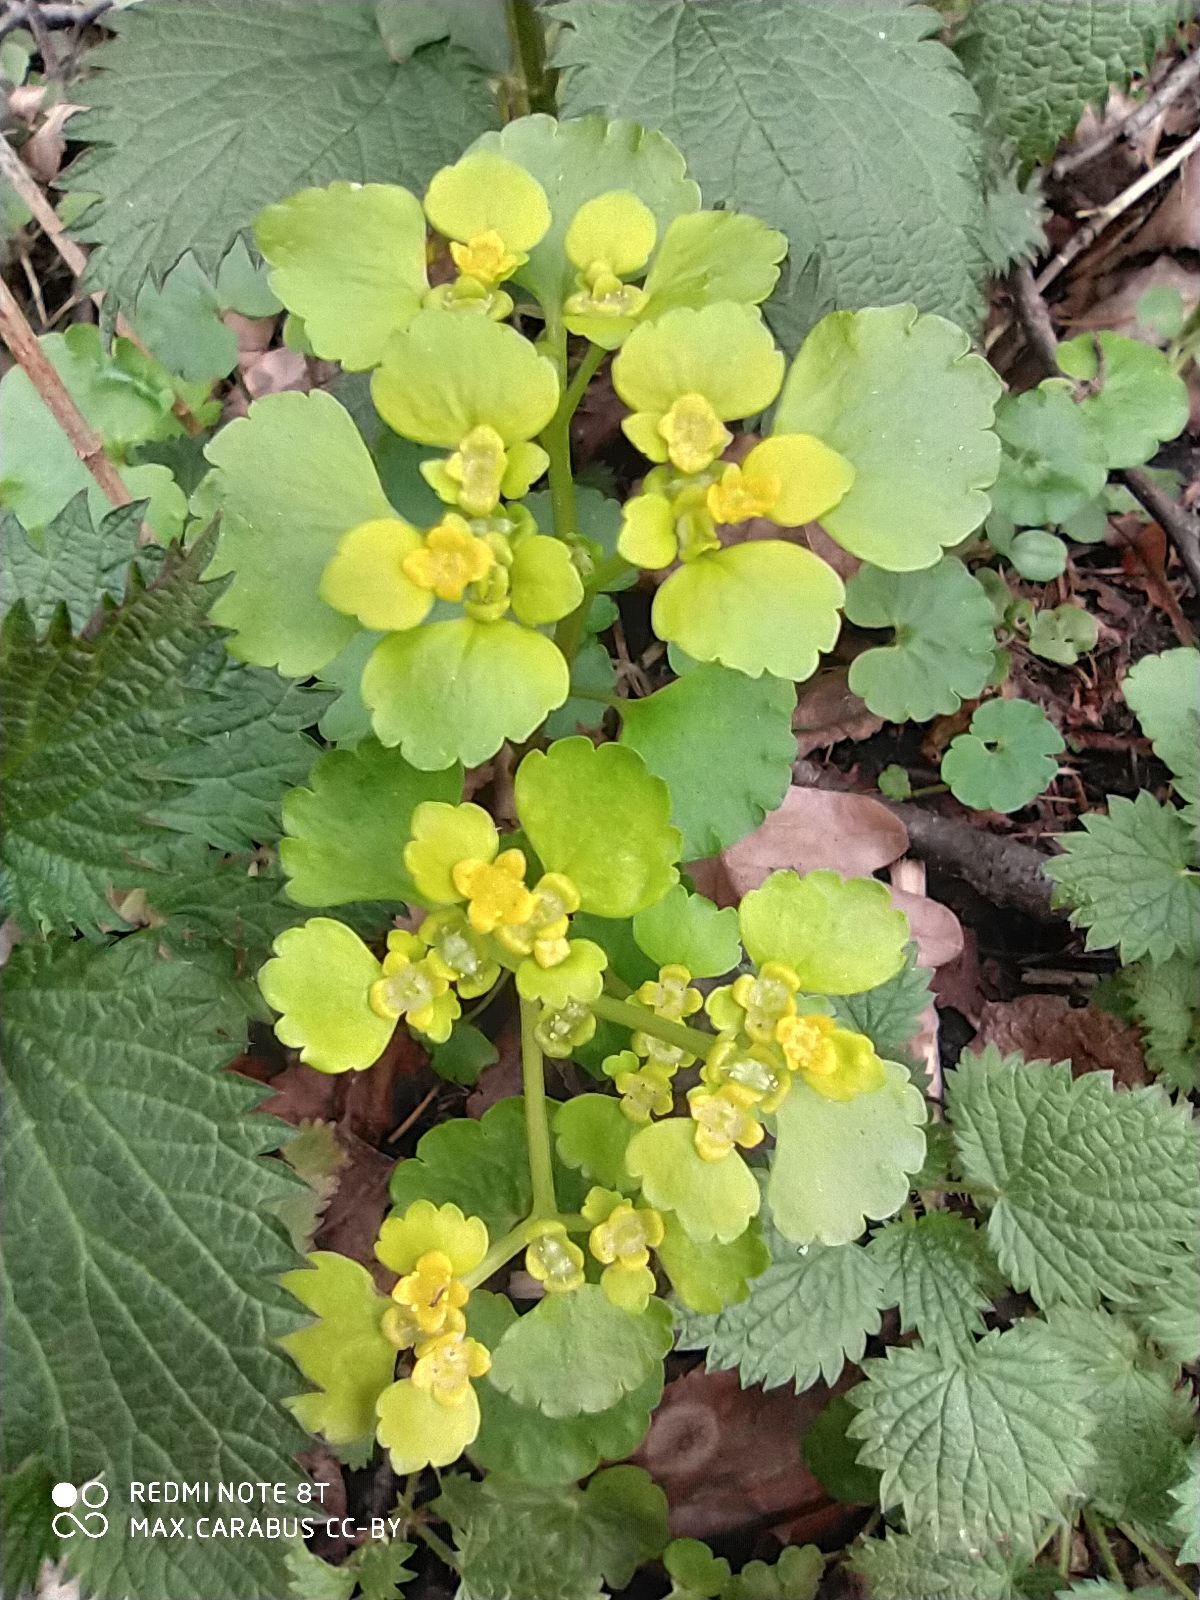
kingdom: Plantae
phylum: Tracheophyta
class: Magnoliopsida
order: Saxifragales
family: Saxifragaceae
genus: Chrysosplenium
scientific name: Chrysosplenium alternifolium
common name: Alternate-leaved golden-saxifrage
